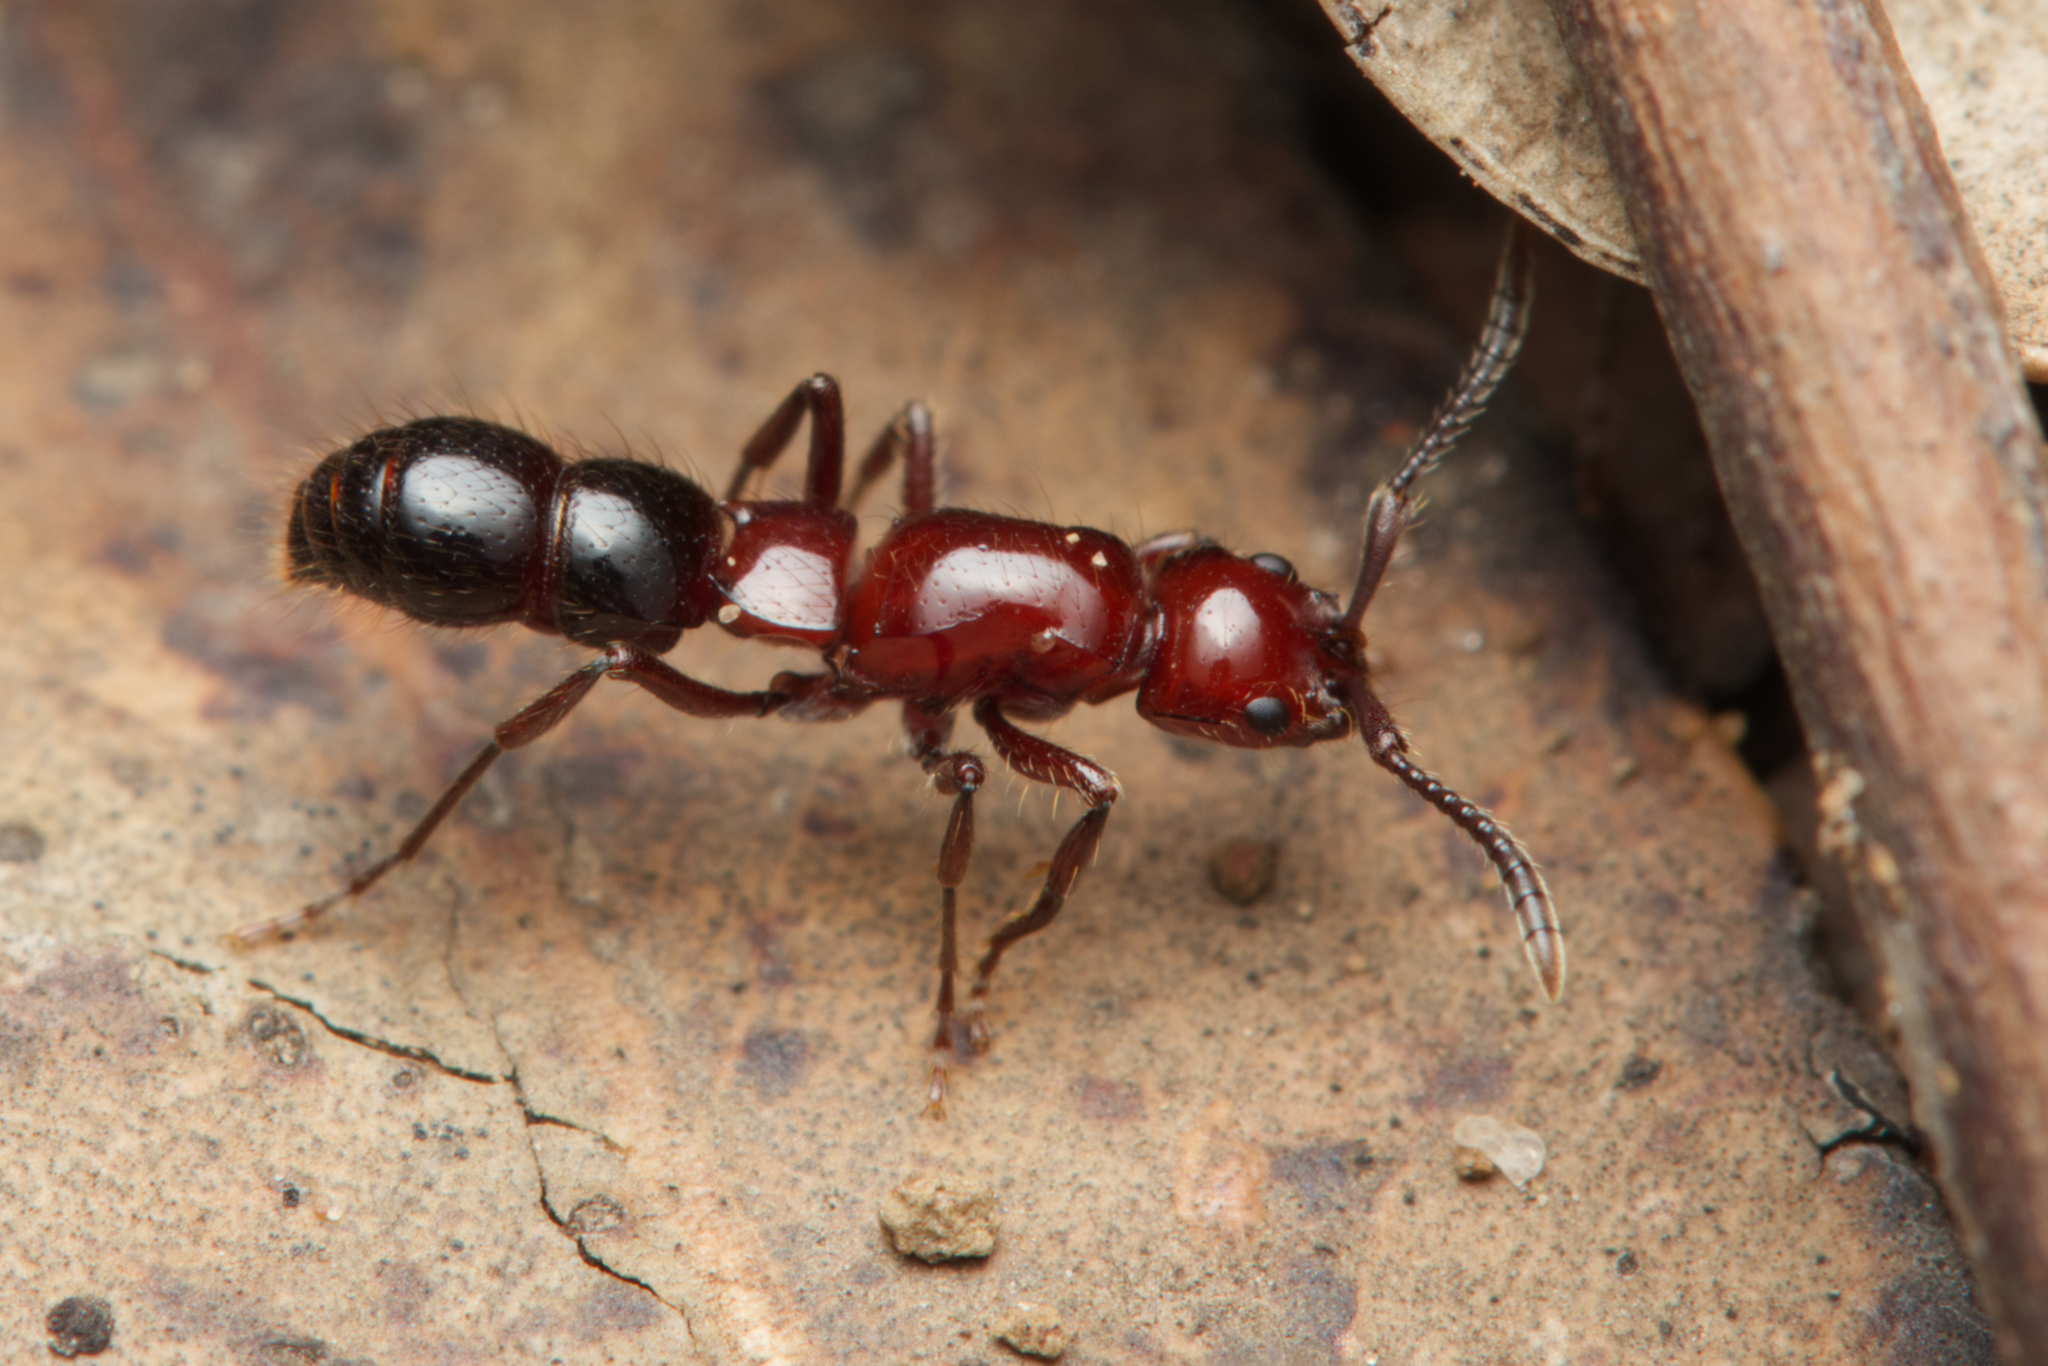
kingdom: Animalia
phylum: Arthropoda
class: Insecta
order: Hymenoptera
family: Formicidae
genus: Lioponera
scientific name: Lioponera
